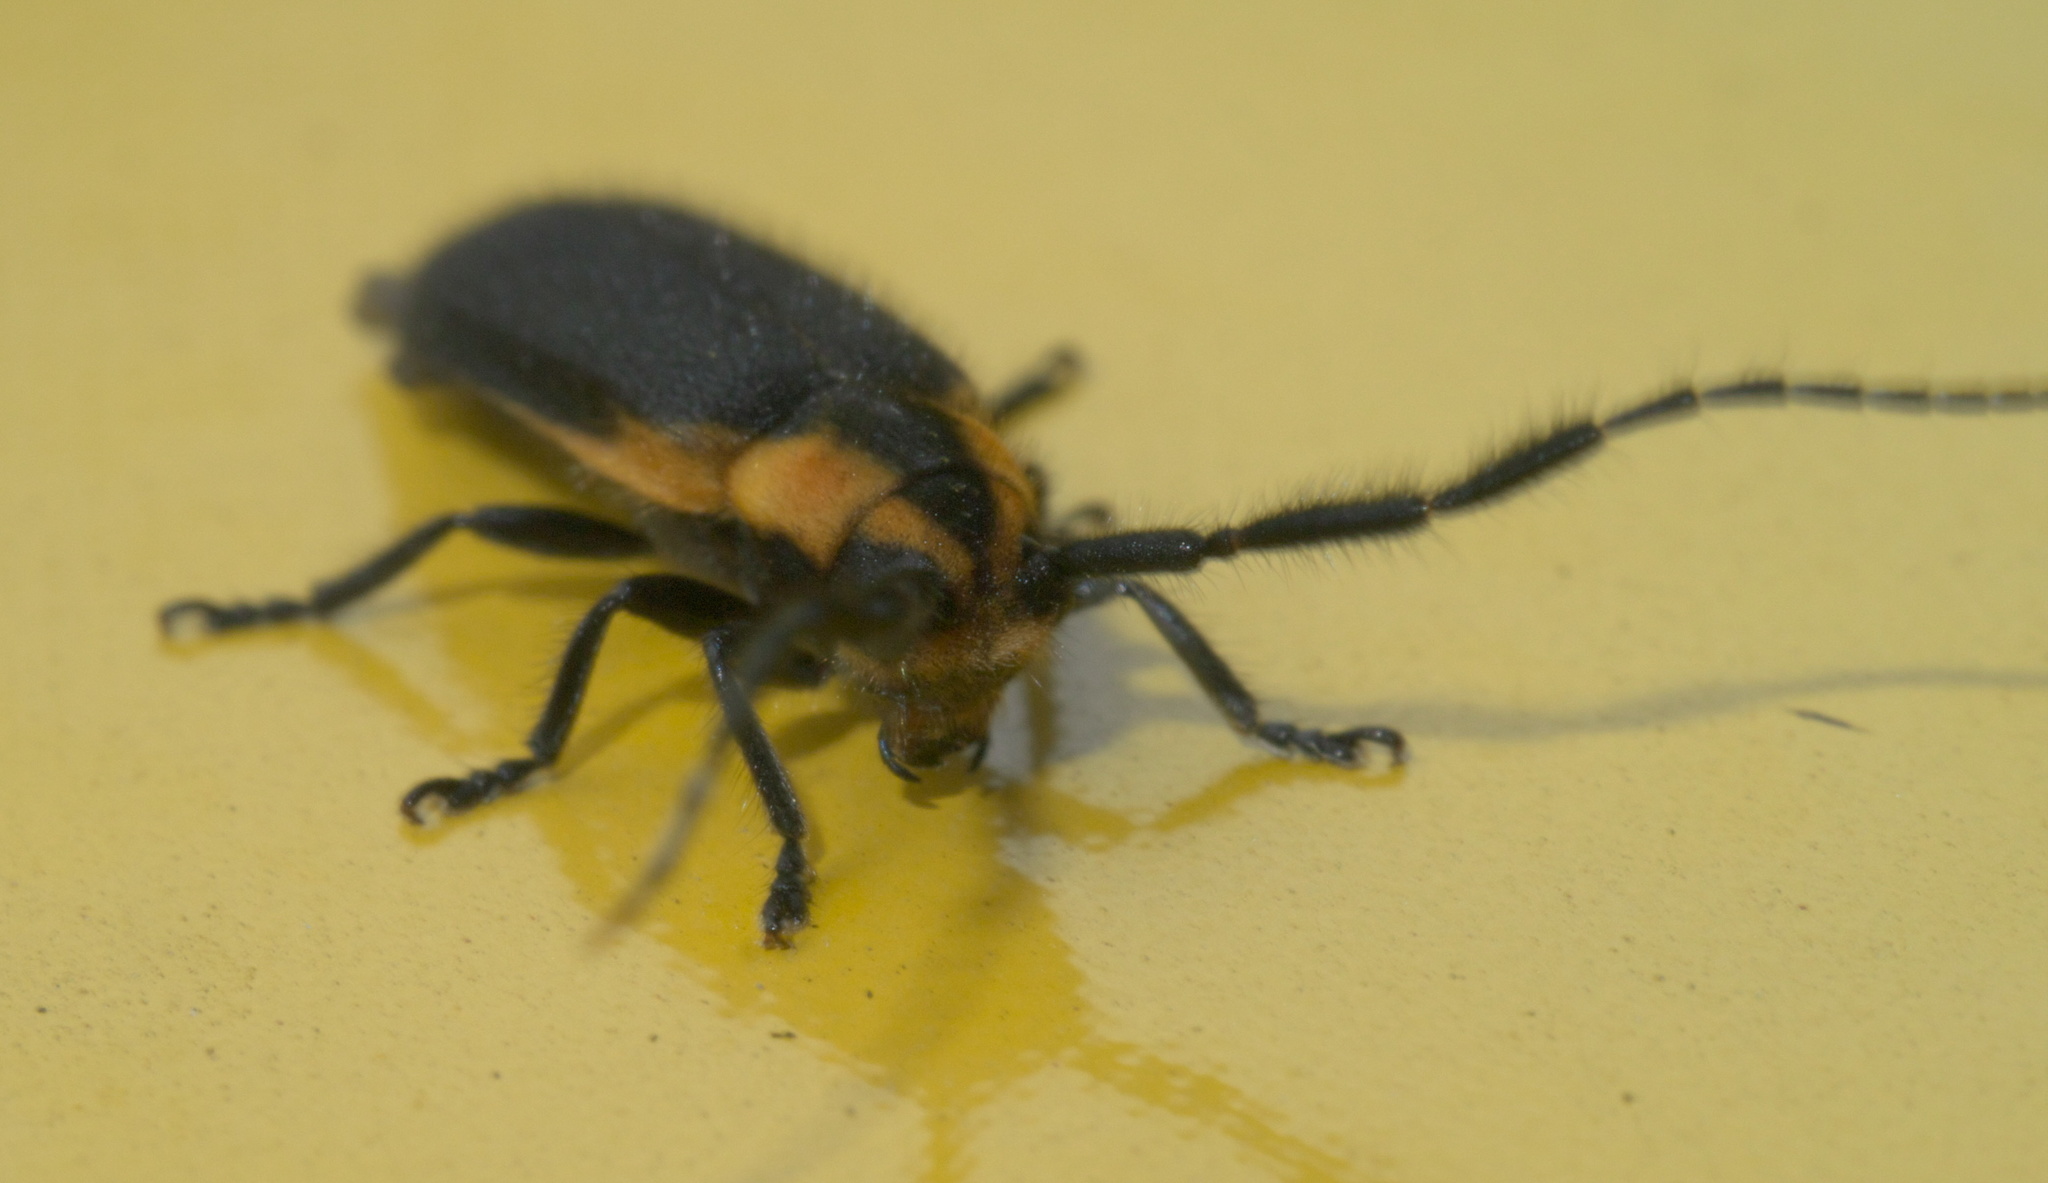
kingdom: Animalia
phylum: Arthropoda
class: Insecta
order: Coleoptera
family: Cerambycidae
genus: Hemierana
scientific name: Hemierana marginata
